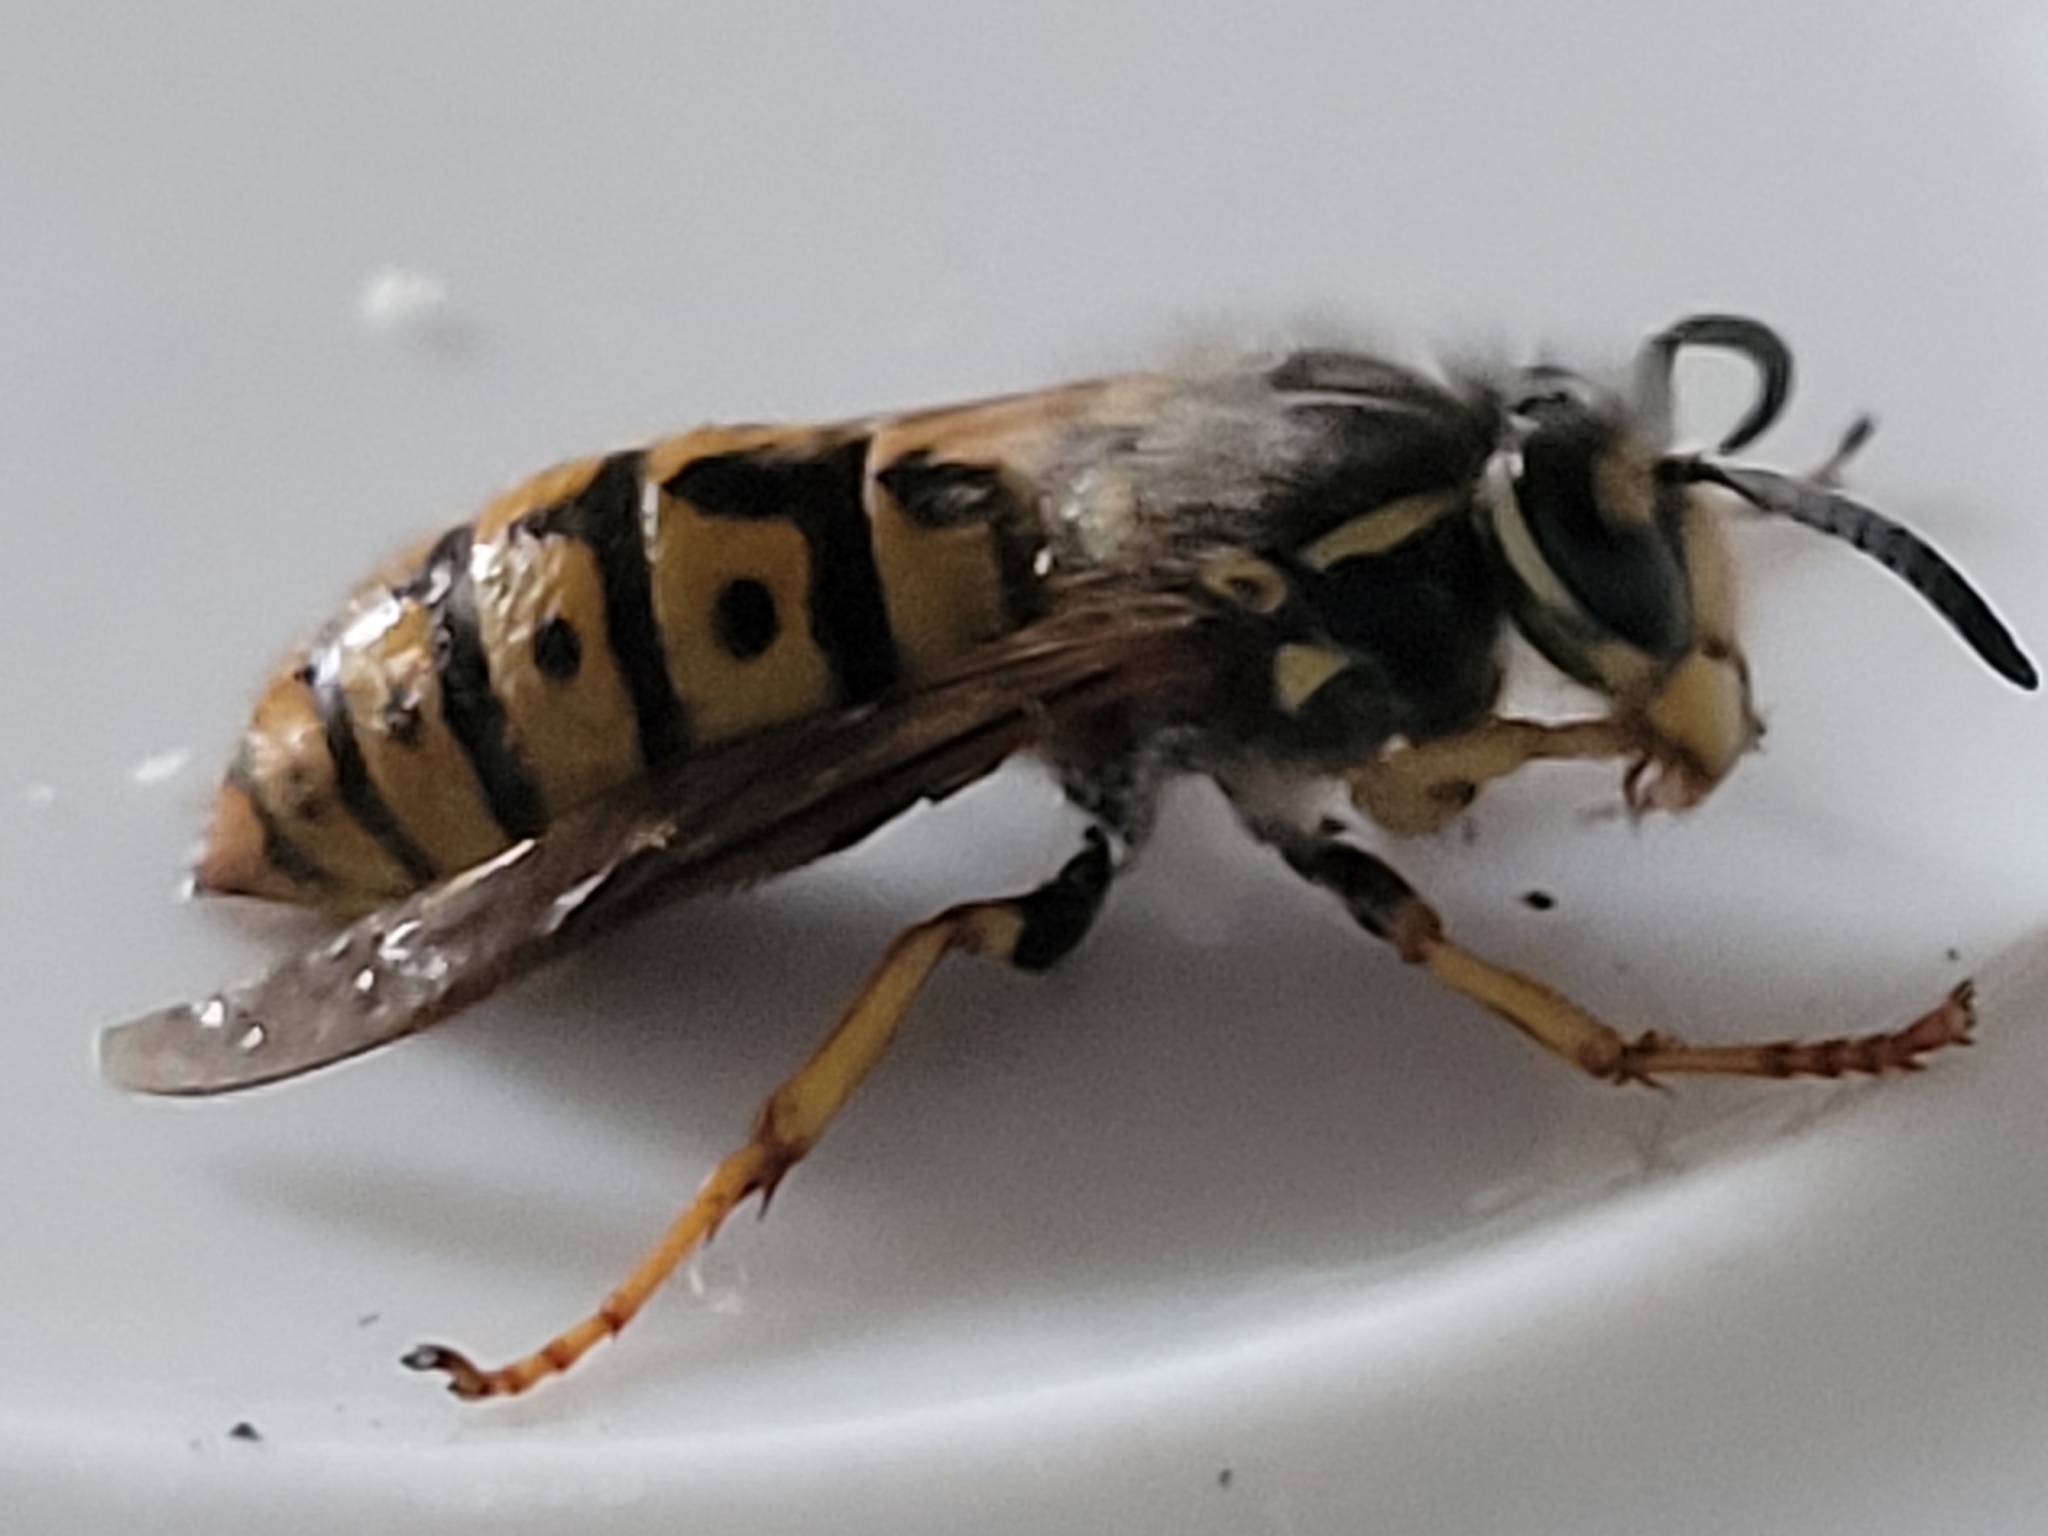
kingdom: Animalia
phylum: Arthropoda
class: Insecta
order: Hymenoptera
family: Vespidae
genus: Vespula
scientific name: Vespula germanica
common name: German wasp
